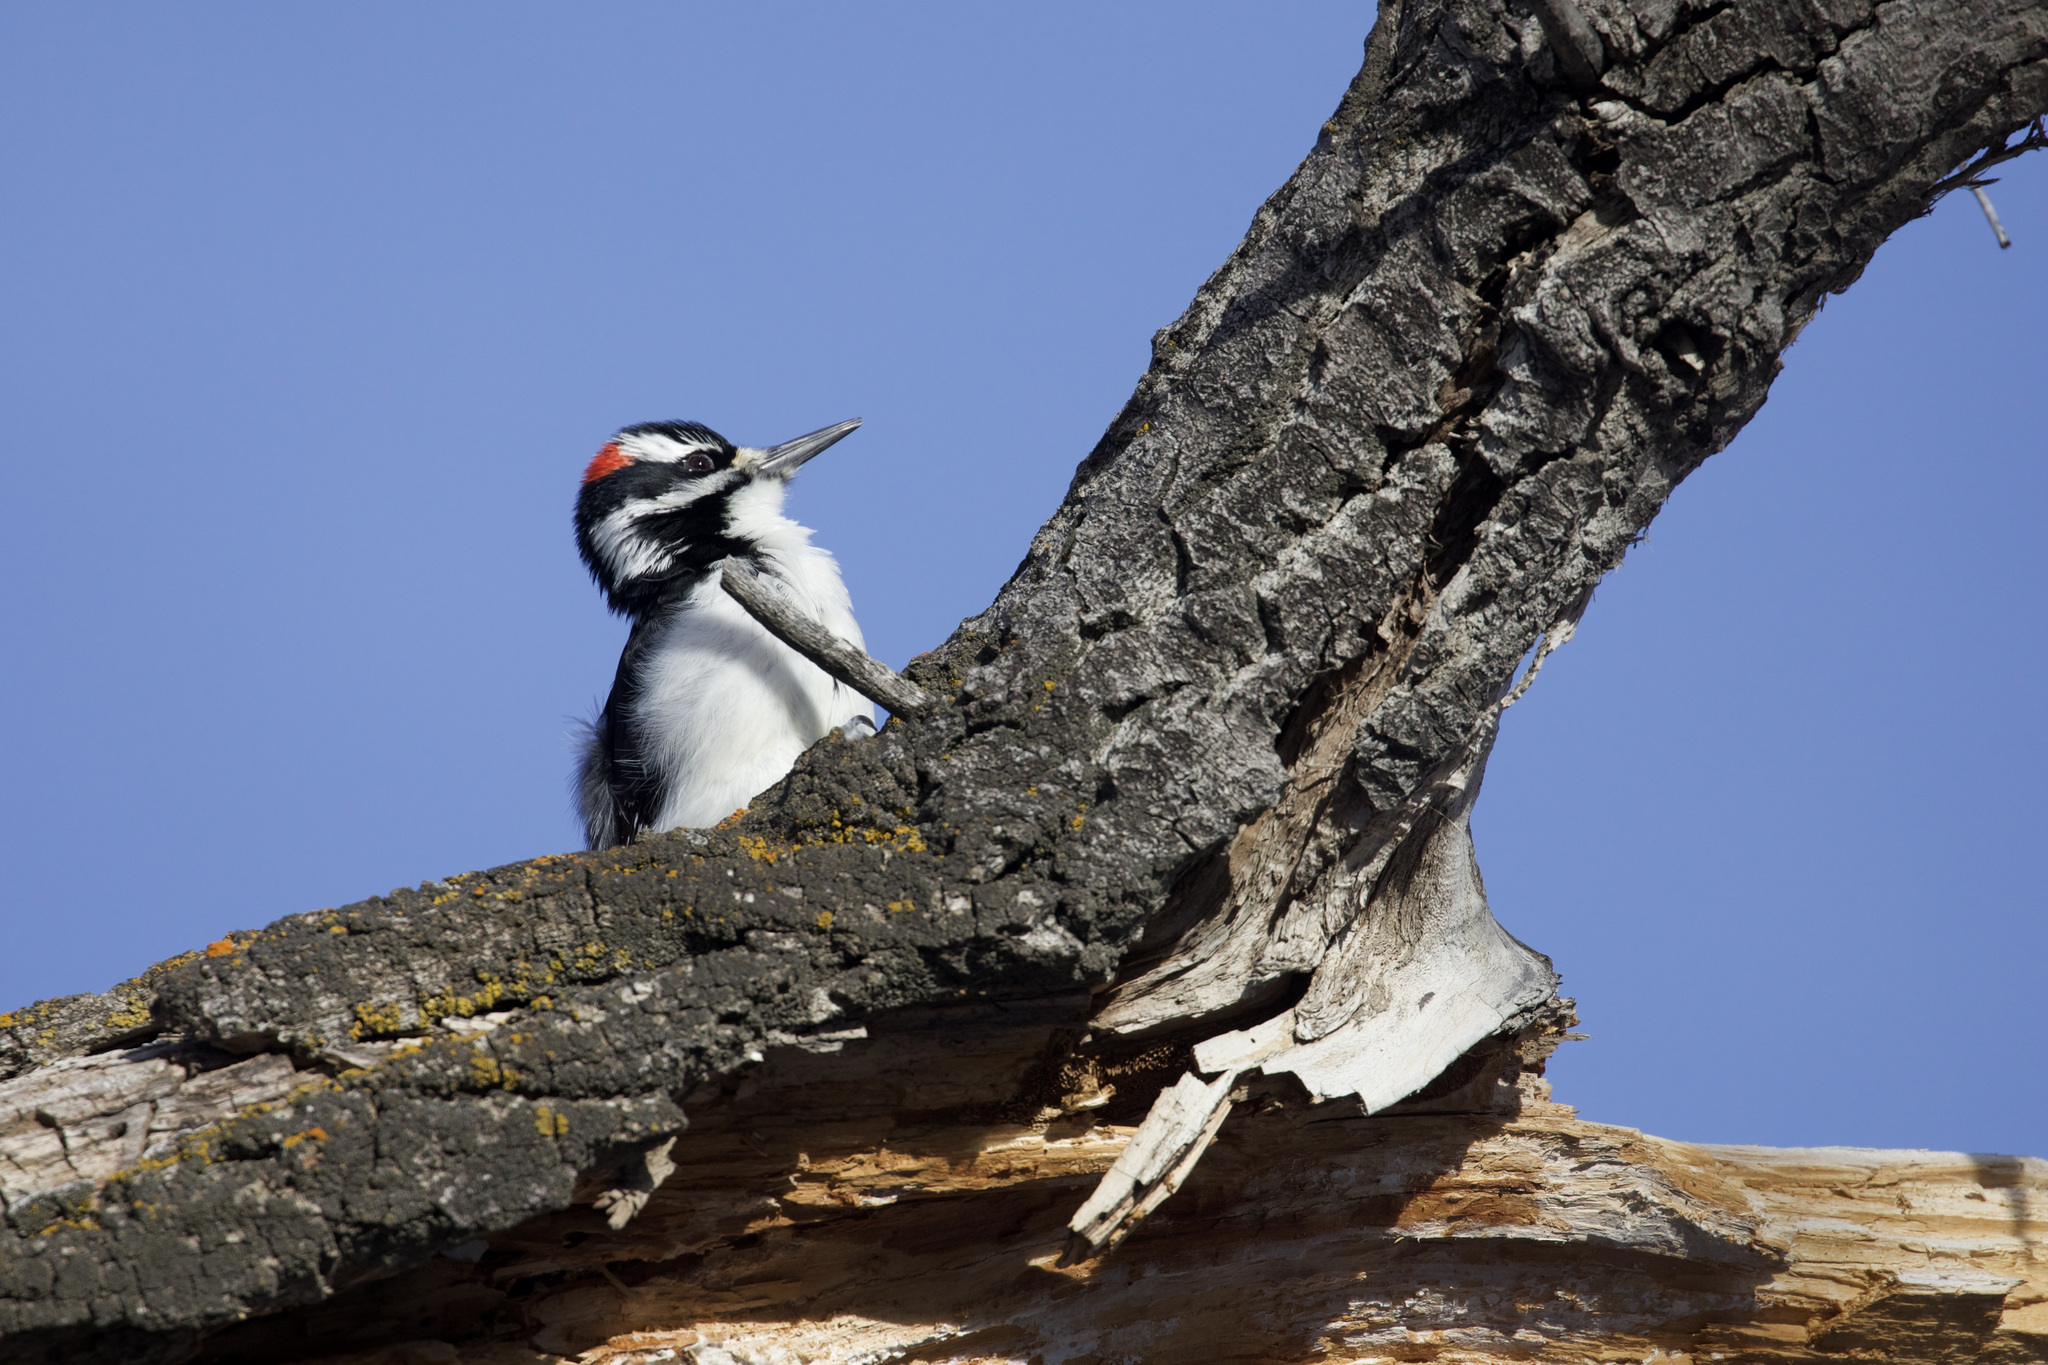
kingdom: Animalia
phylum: Chordata
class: Aves
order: Piciformes
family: Picidae
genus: Leuconotopicus
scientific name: Leuconotopicus villosus
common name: Hairy woodpecker
